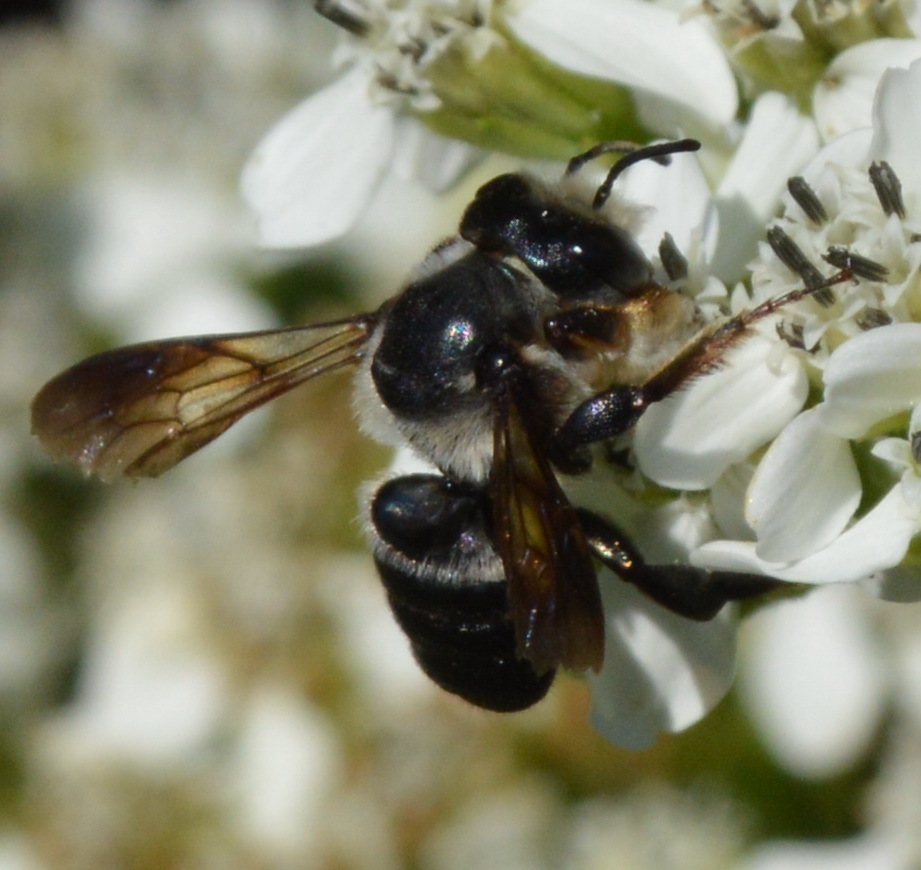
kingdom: Animalia
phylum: Arthropoda
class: Insecta
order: Hymenoptera
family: Megachilidae
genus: Megachile
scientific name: Megachile xylocopoides
